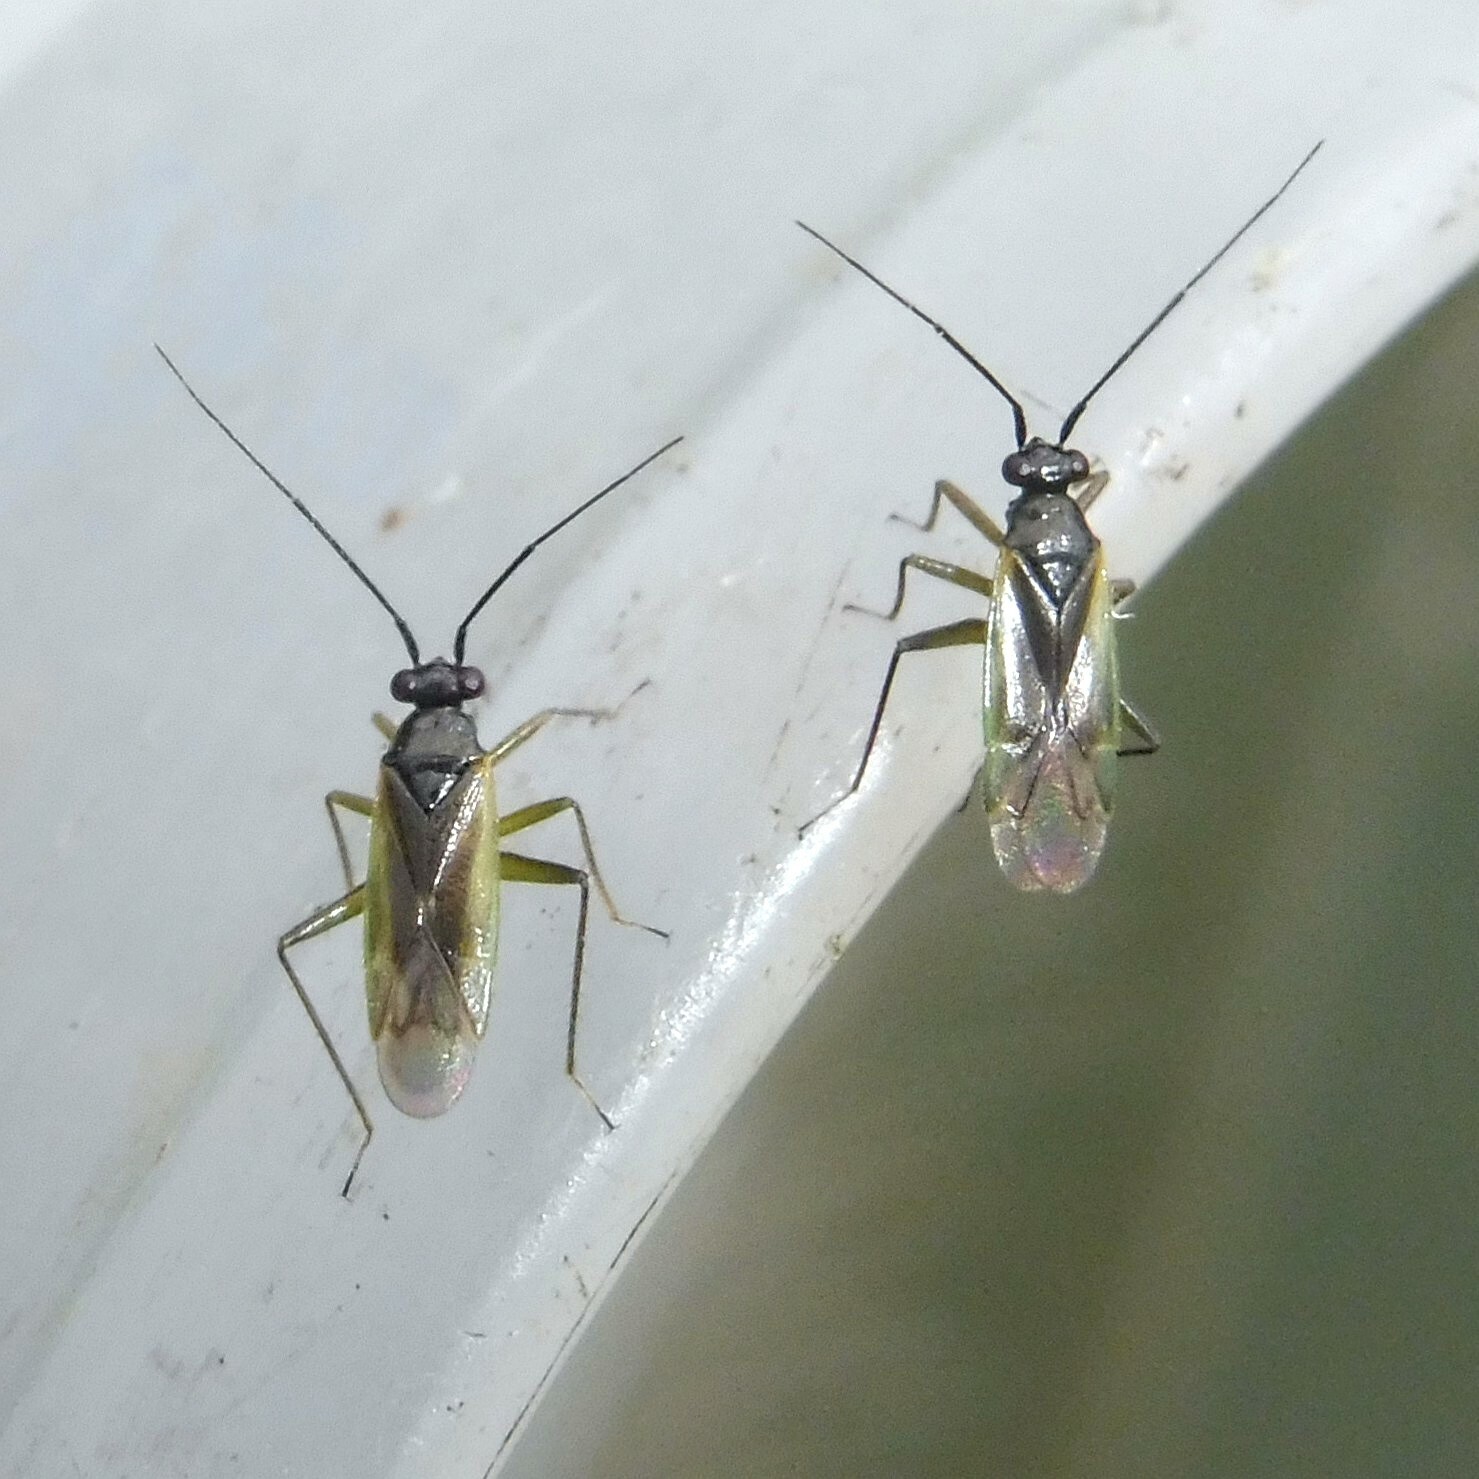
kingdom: Animalia
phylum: Arthropoda
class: Insecta
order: Hemiptera
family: Miridae
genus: Cyrtorhinus
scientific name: Cyrtorhinus caricis
